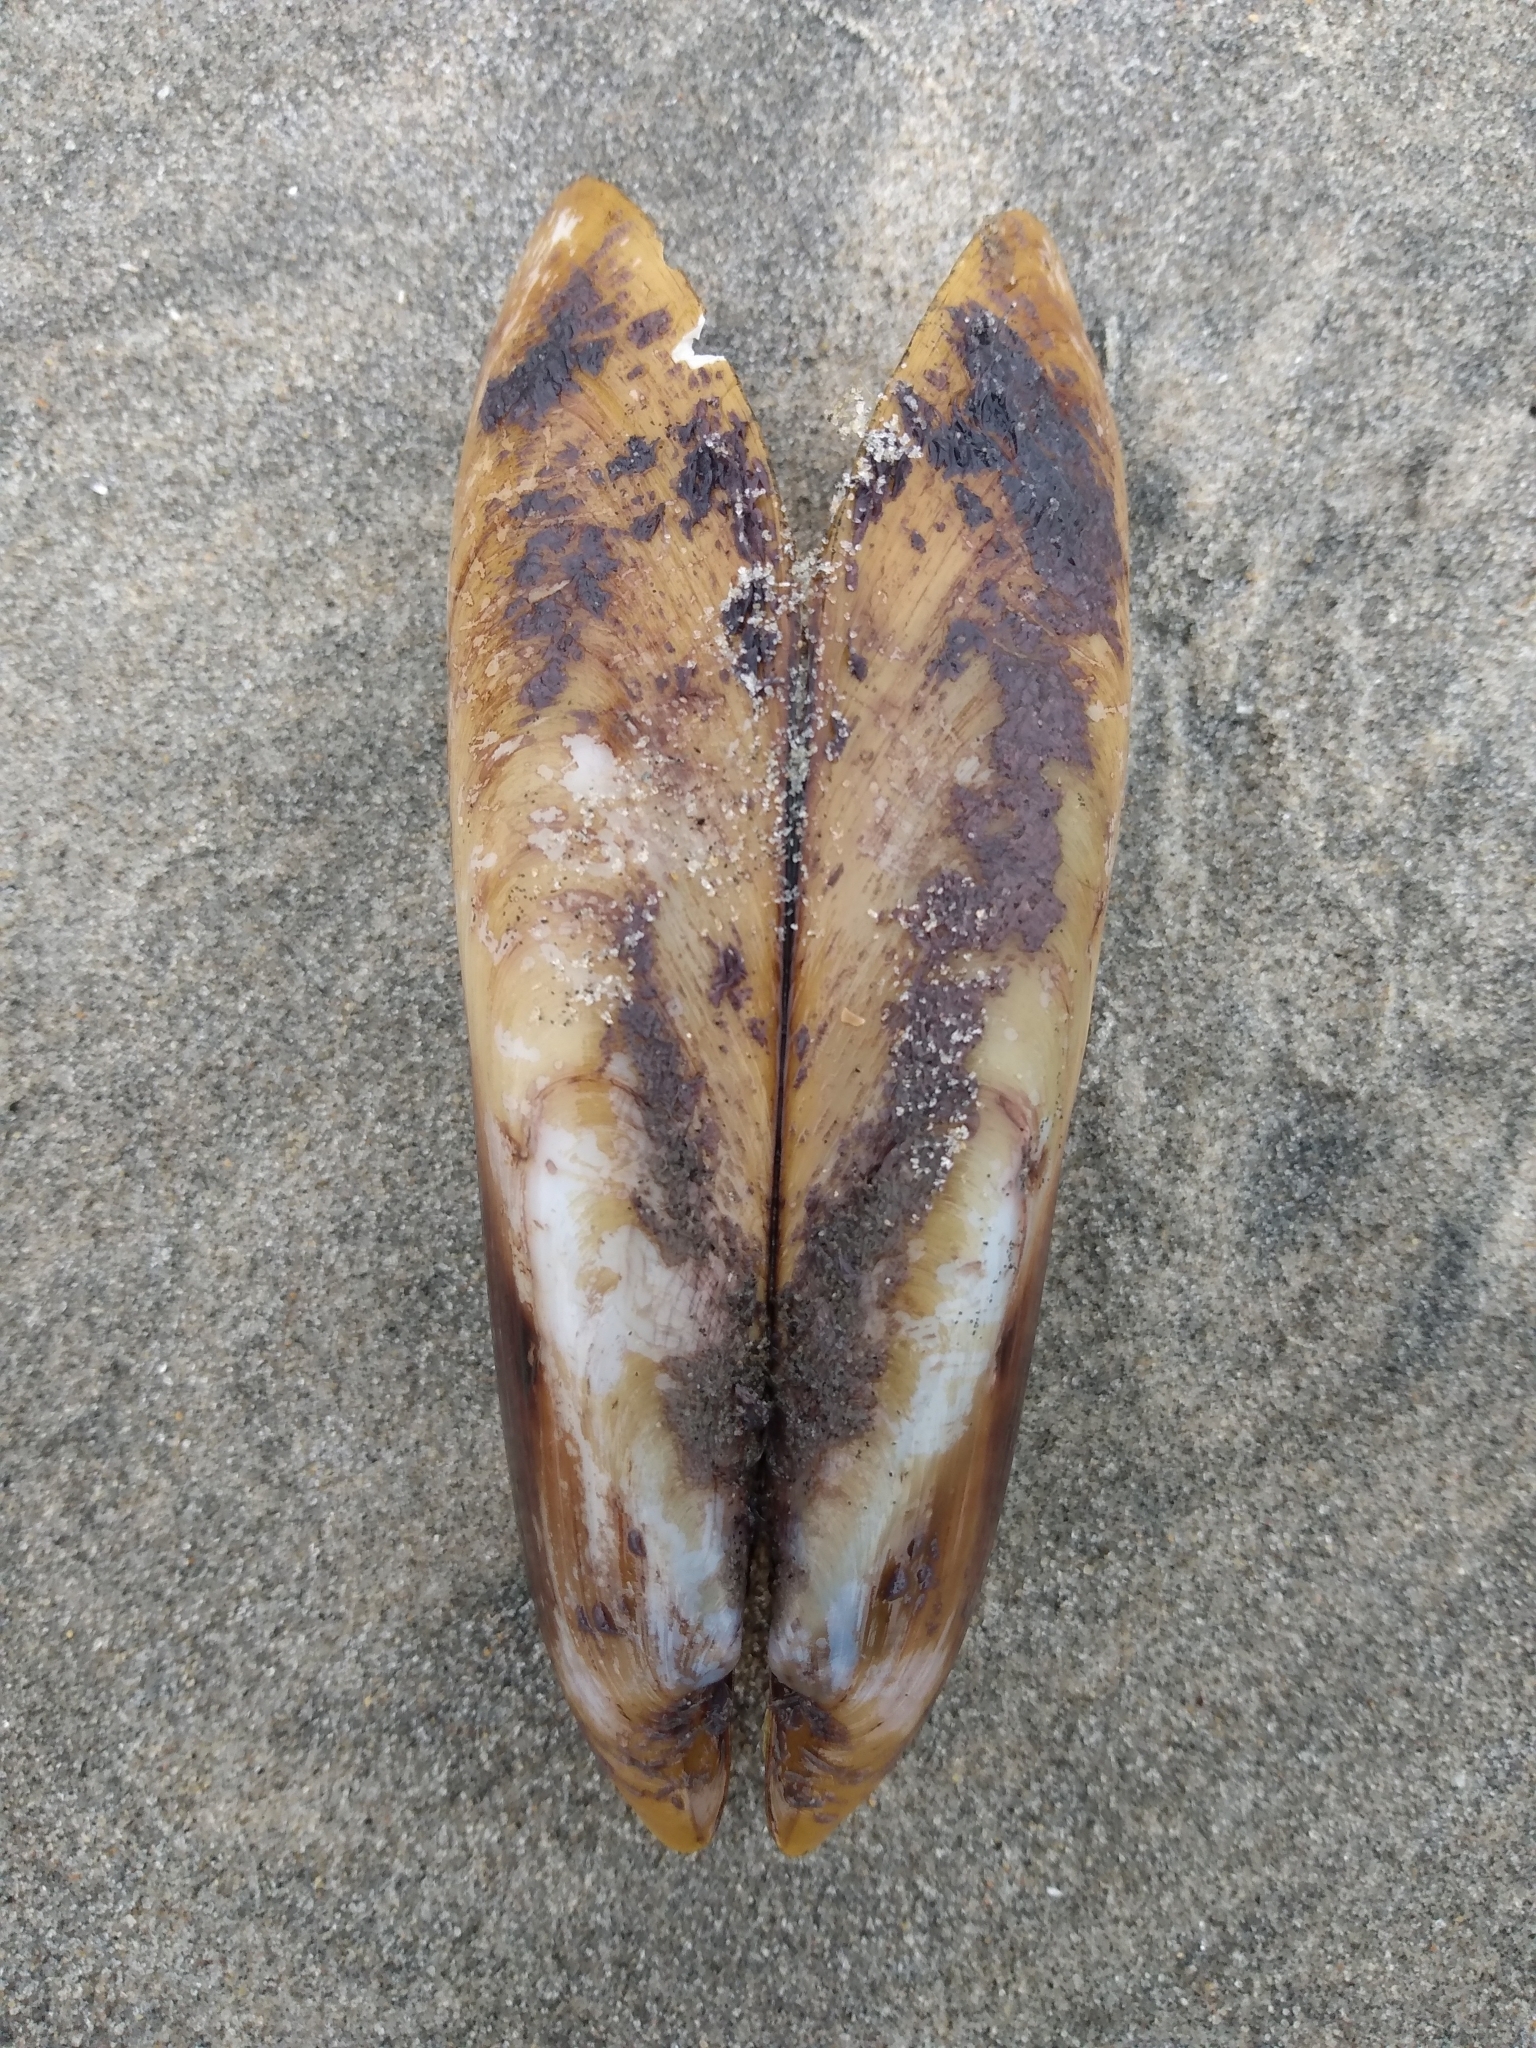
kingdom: Animalia
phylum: Mollusca
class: Bivalvia
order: Mytilida
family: Mytilidae
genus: Modiolatus
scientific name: Modiolatus neglectus
